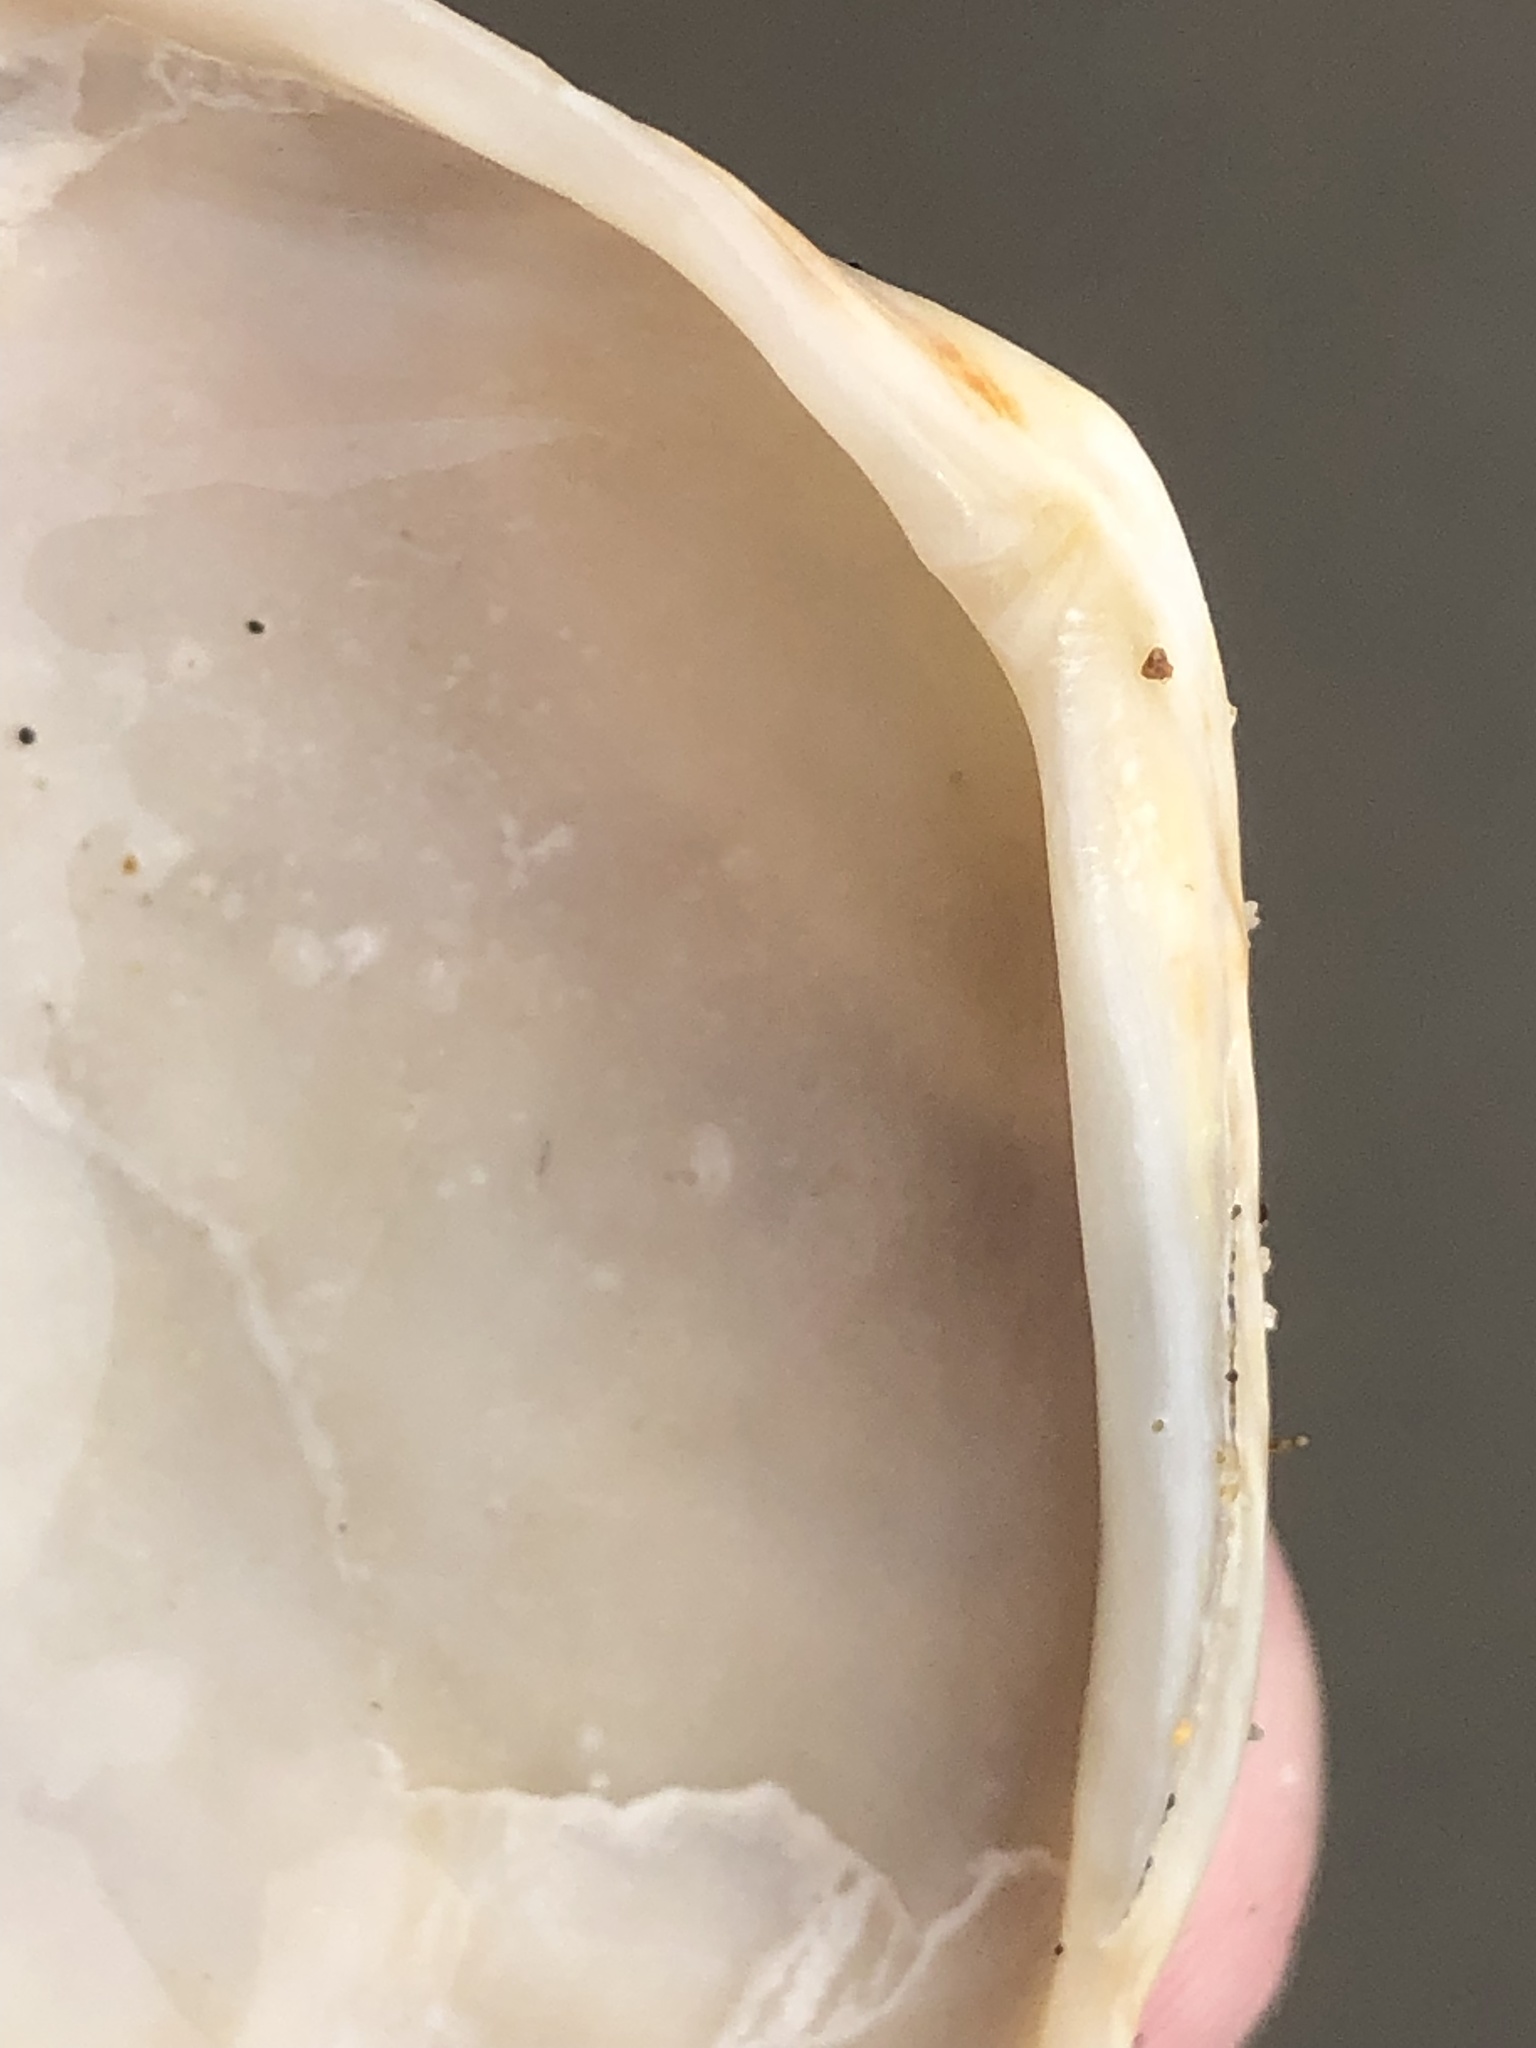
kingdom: Animalia
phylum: Mollusca
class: Bivalvia
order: Cardiida
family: Tellinidae
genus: Macoma
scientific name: Macoma nasuta
